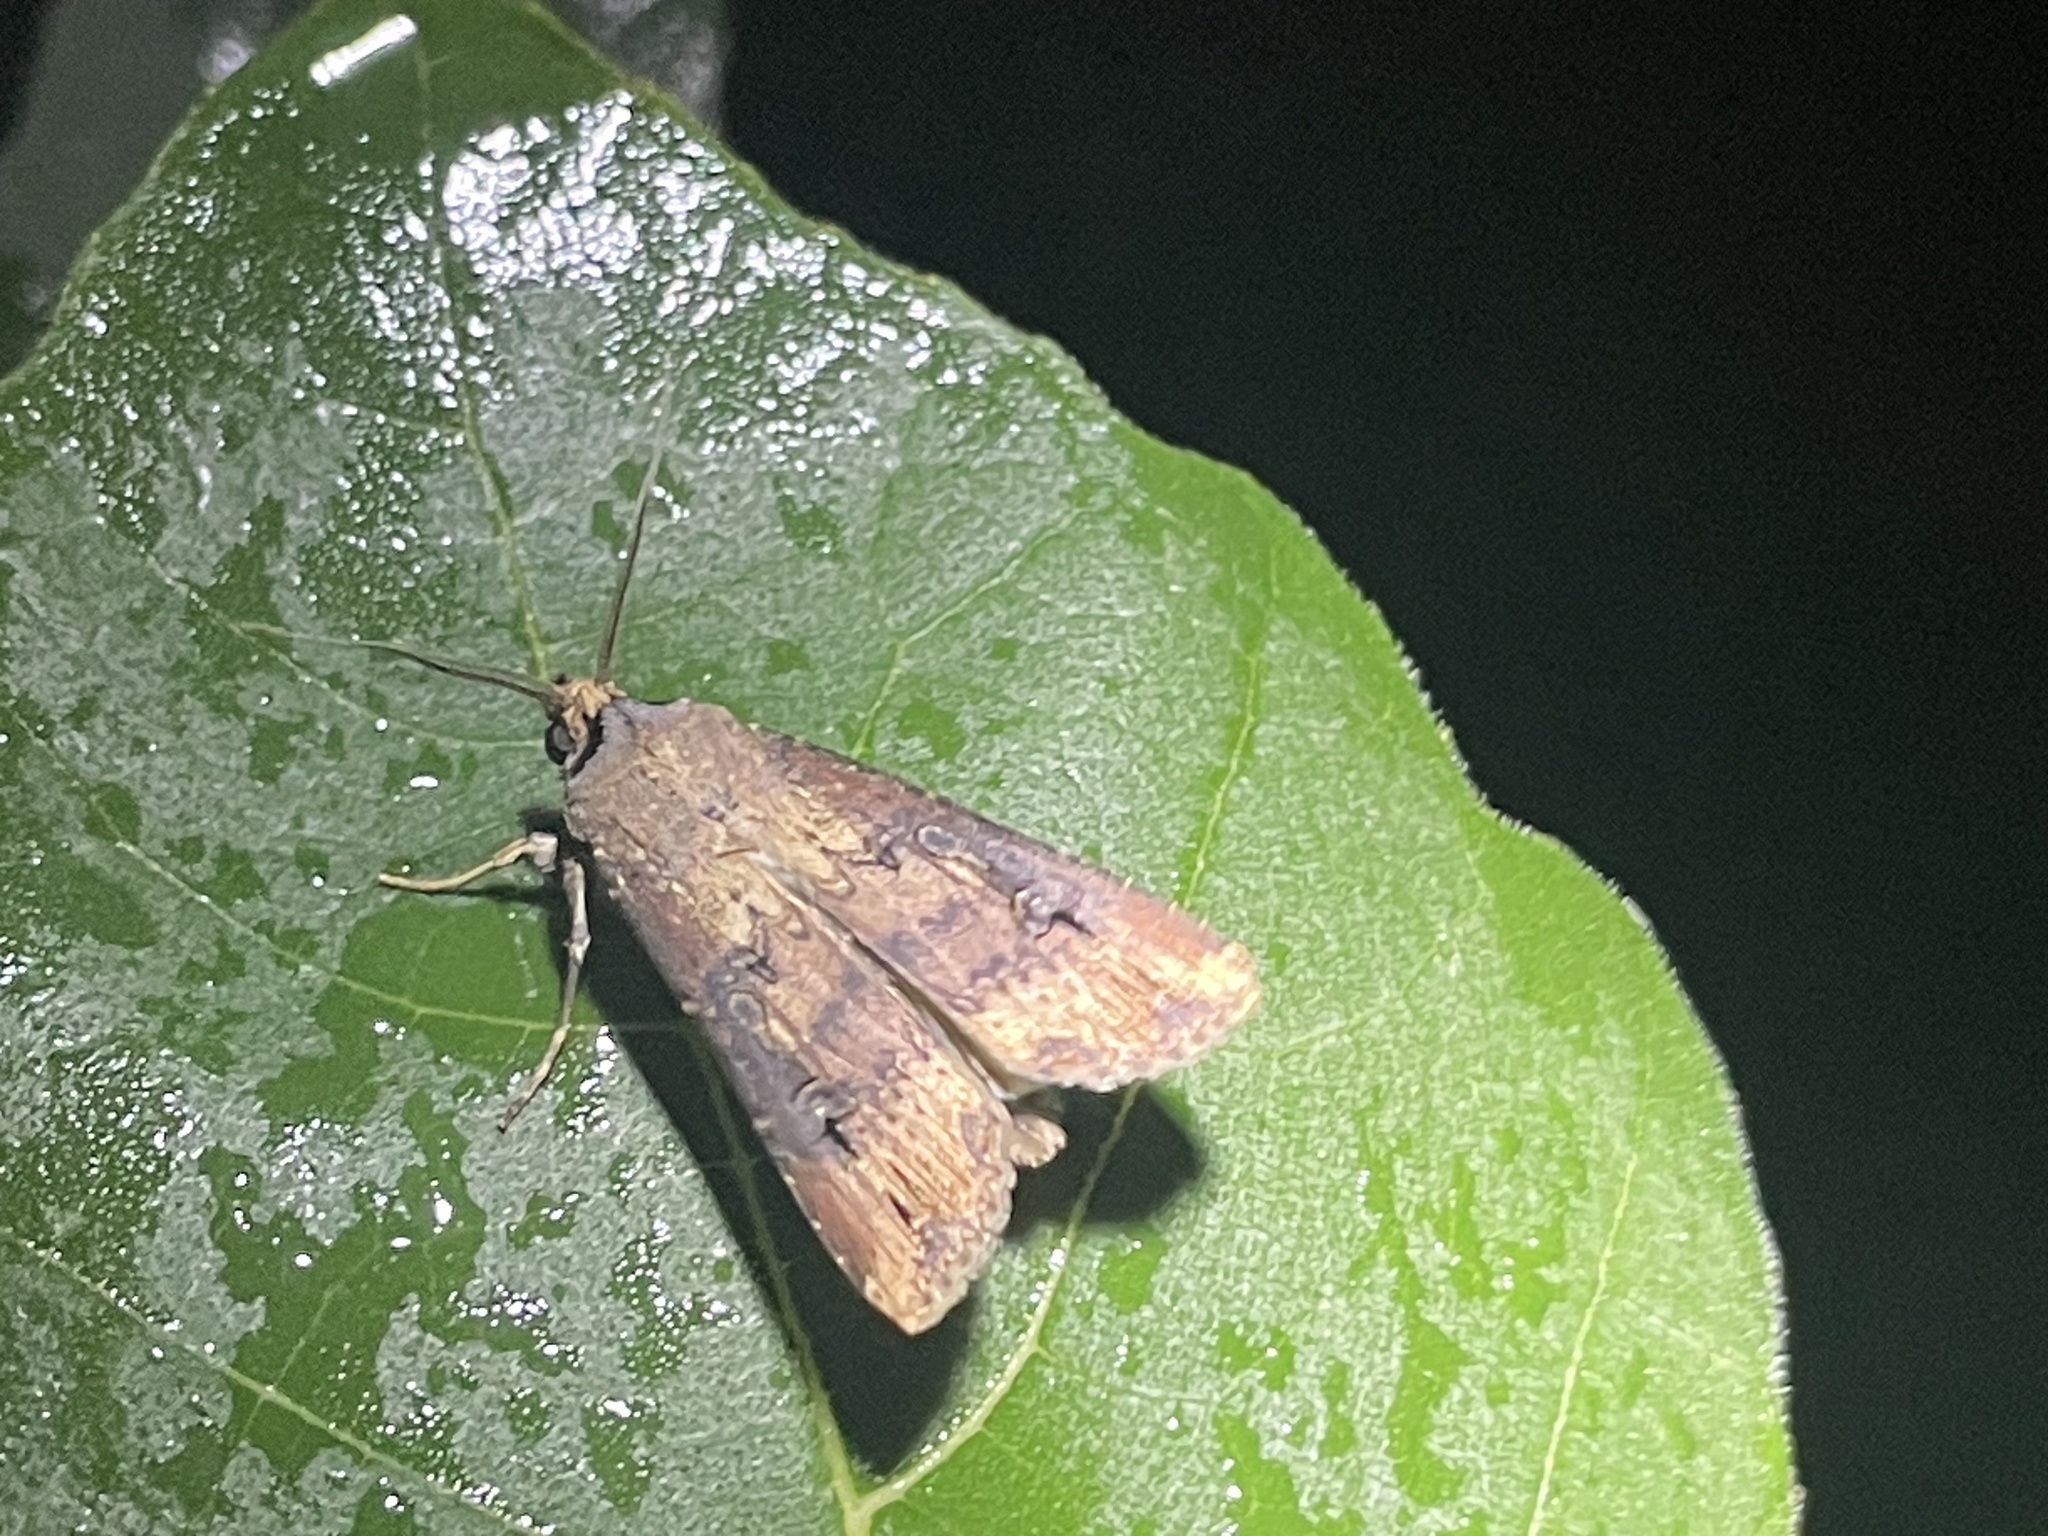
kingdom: Animalia
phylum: Arthropoda
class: Insecta
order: Lepidoptera
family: Noctuidae
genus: Agrotis
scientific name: Agrotis ipsilon
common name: Dark sword-grass
